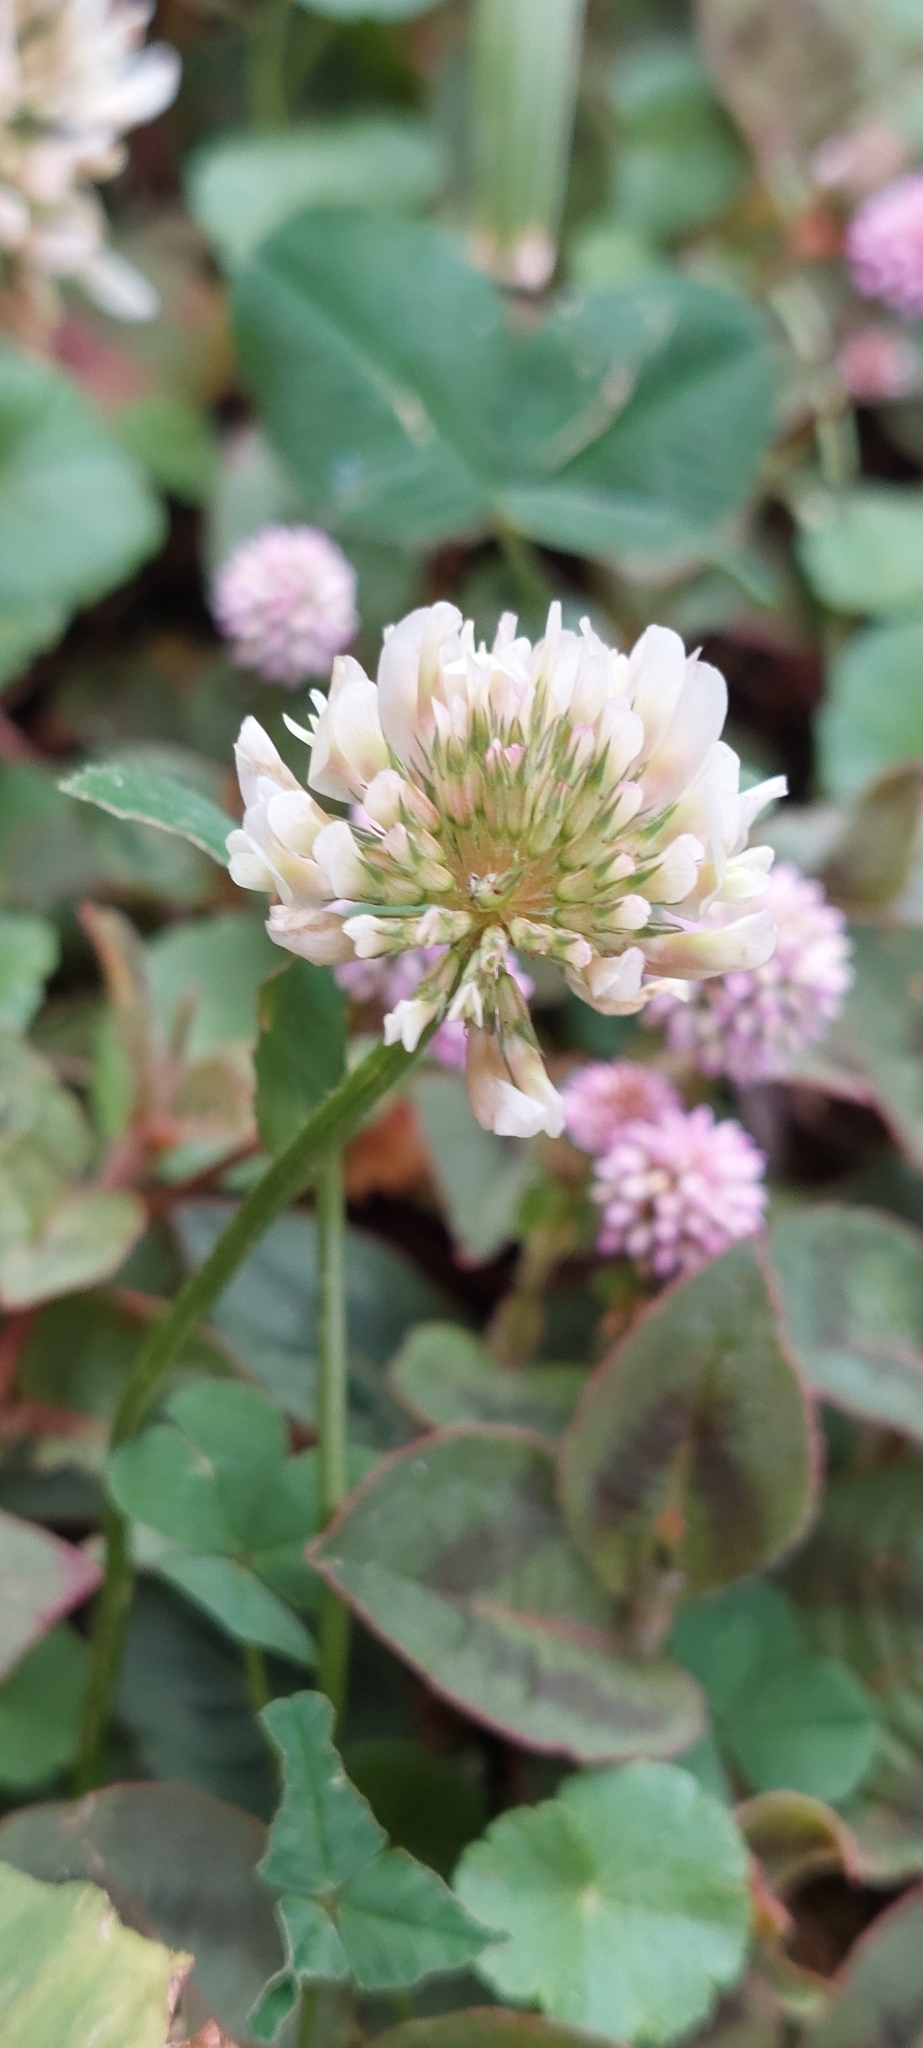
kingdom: Plantae
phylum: Tracheophyta
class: Magnoliopsida
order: Fabales
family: Fabaceae
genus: Trifolium
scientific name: Trifolium repens
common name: White clover
